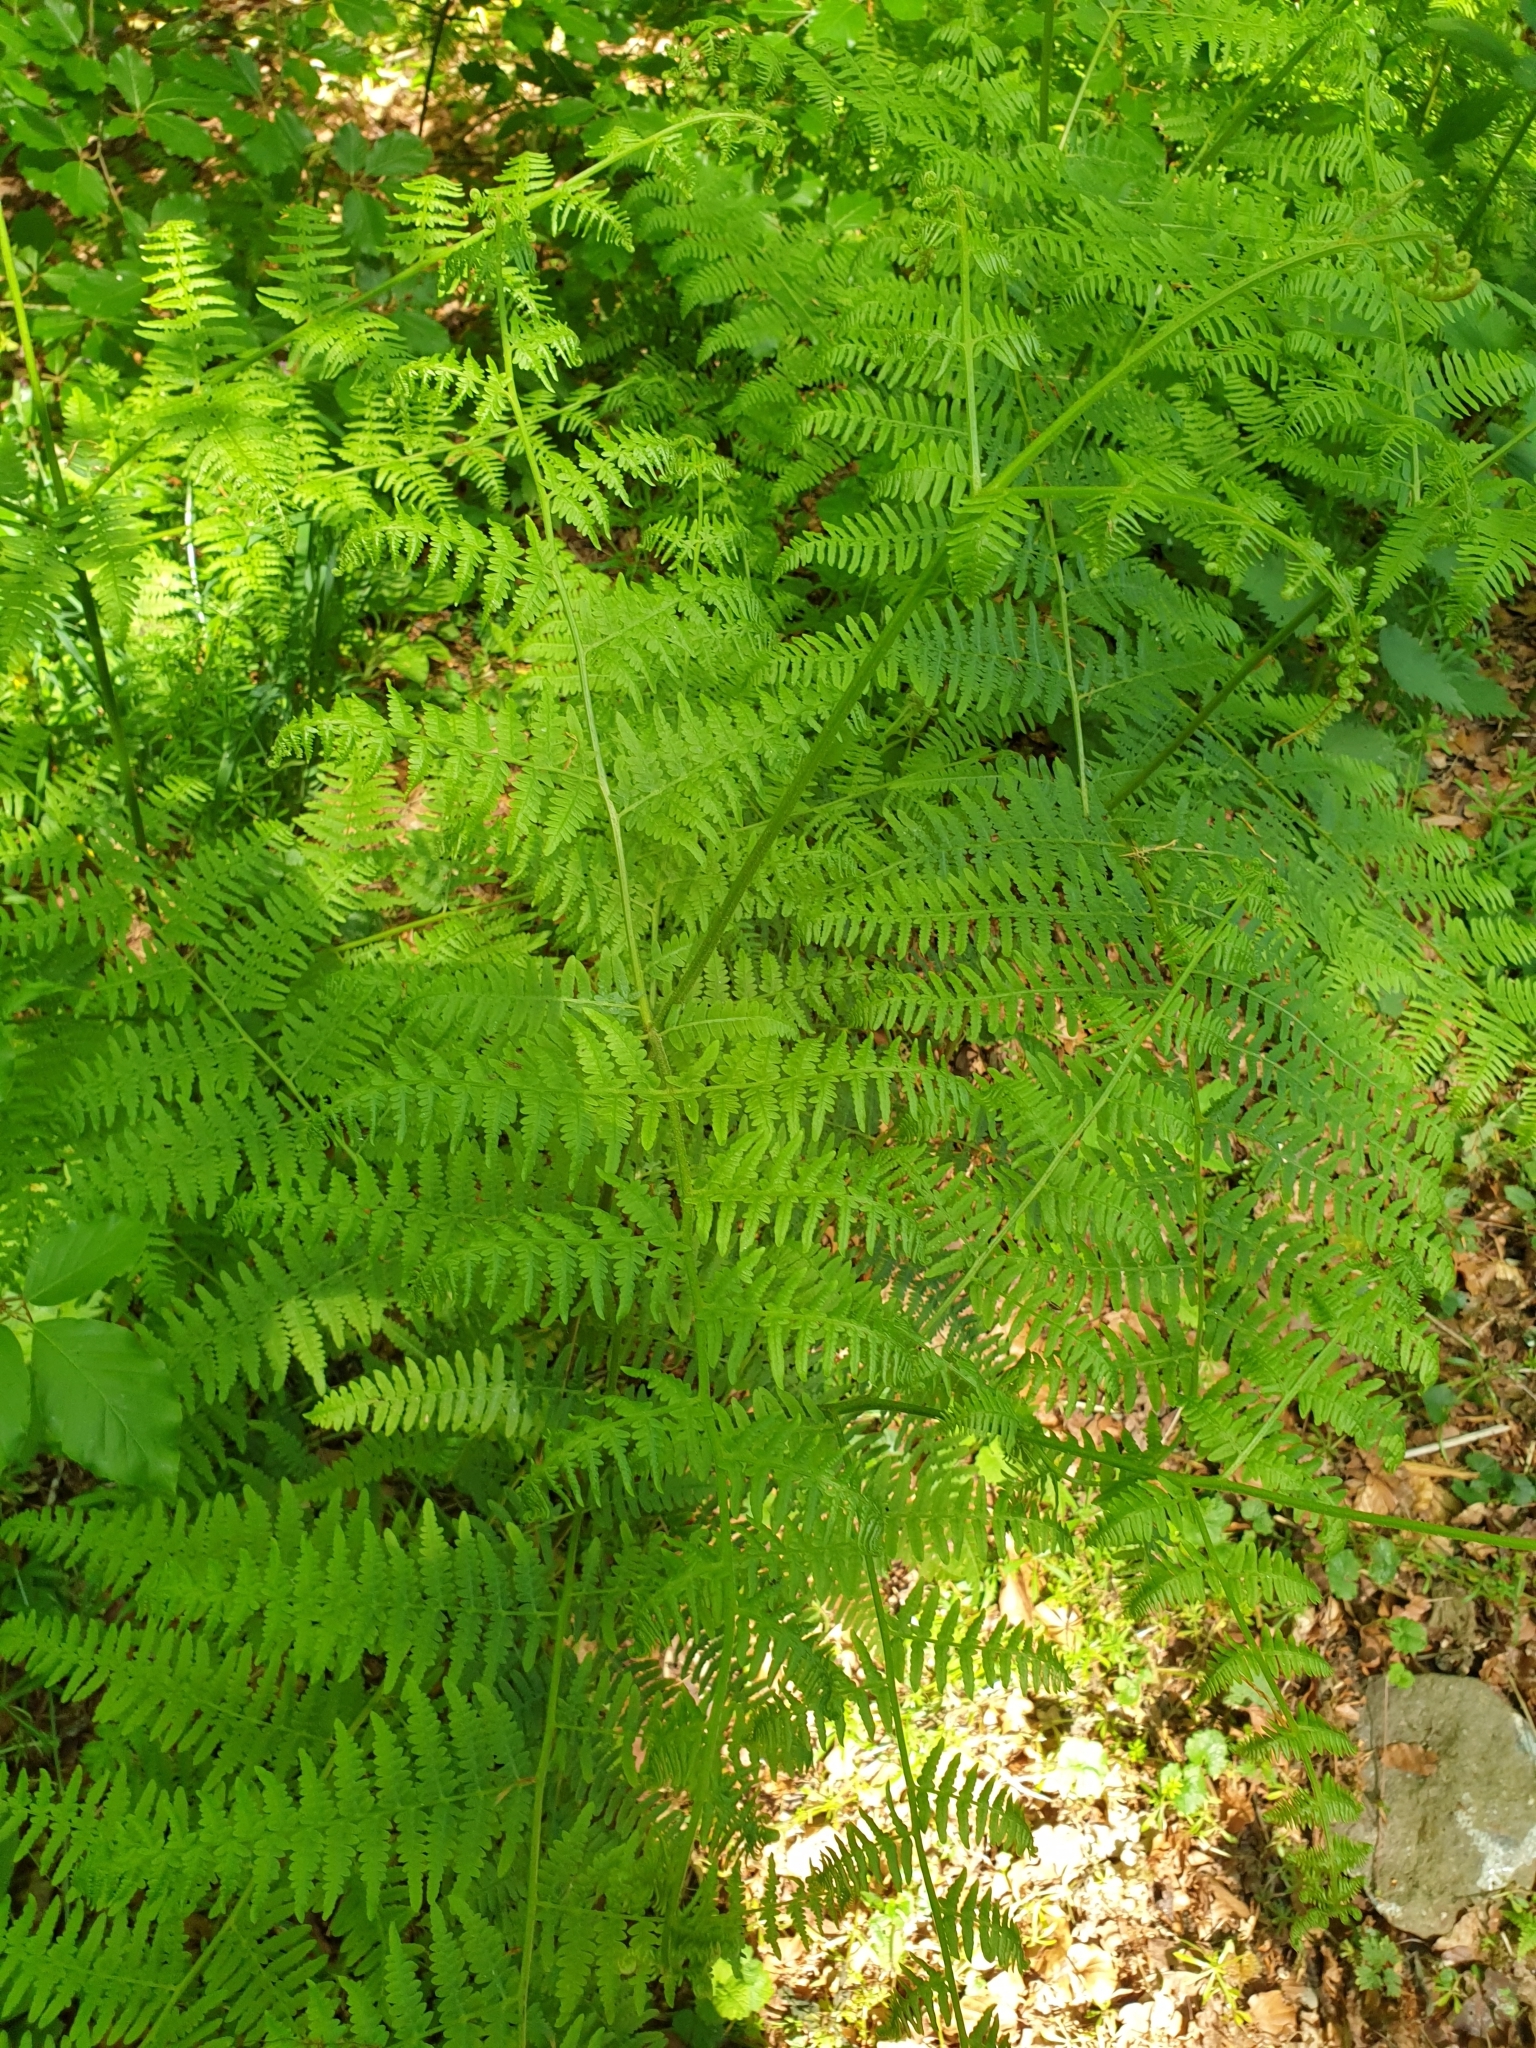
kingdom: Plantae
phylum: Tracheophyta
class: Polypodiopsida
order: Polypodiales
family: Dennstaedtiaceae
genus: Pteridium
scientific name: Pteridium aquilinum
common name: Bracken
